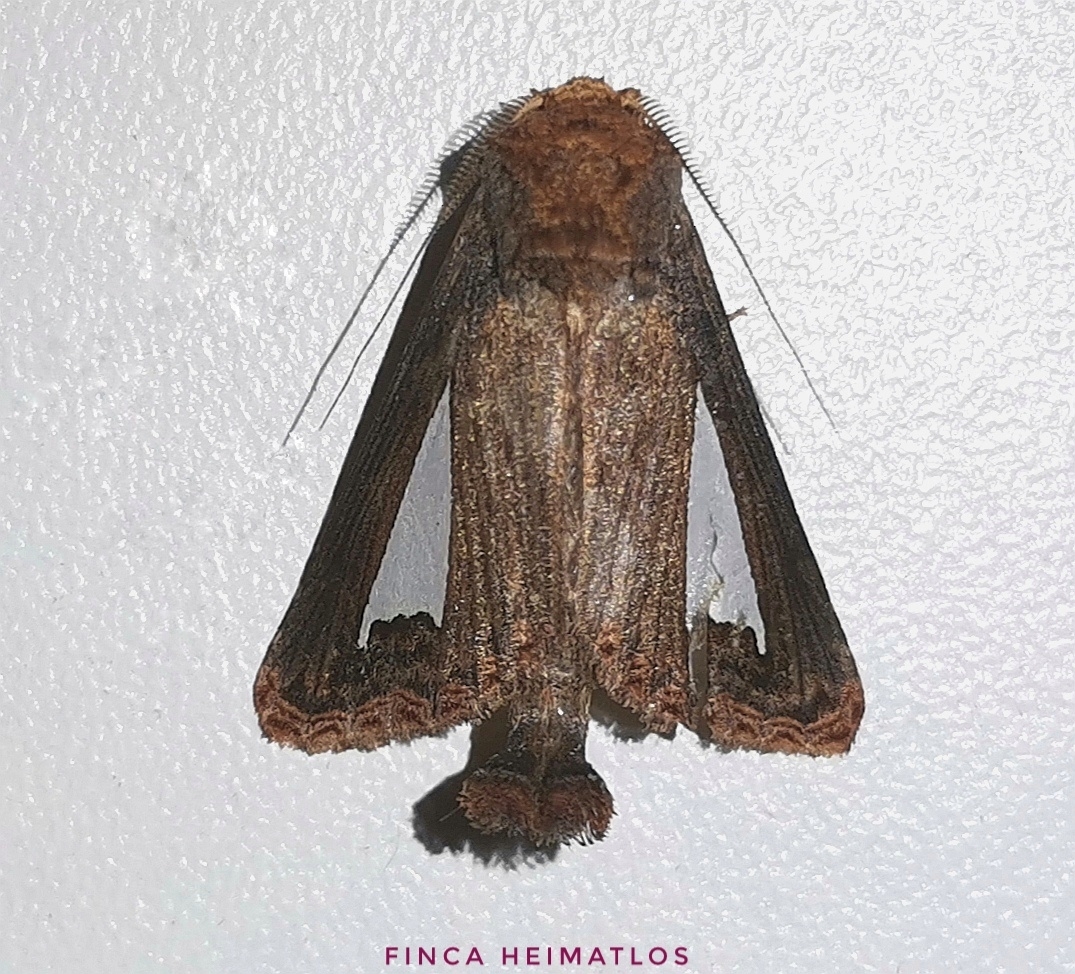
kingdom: Animalia
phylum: Arthropoda
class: Insecta
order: Lepidoptera
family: Notodontidae
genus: Notoplusia
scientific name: Notoplusia clara
